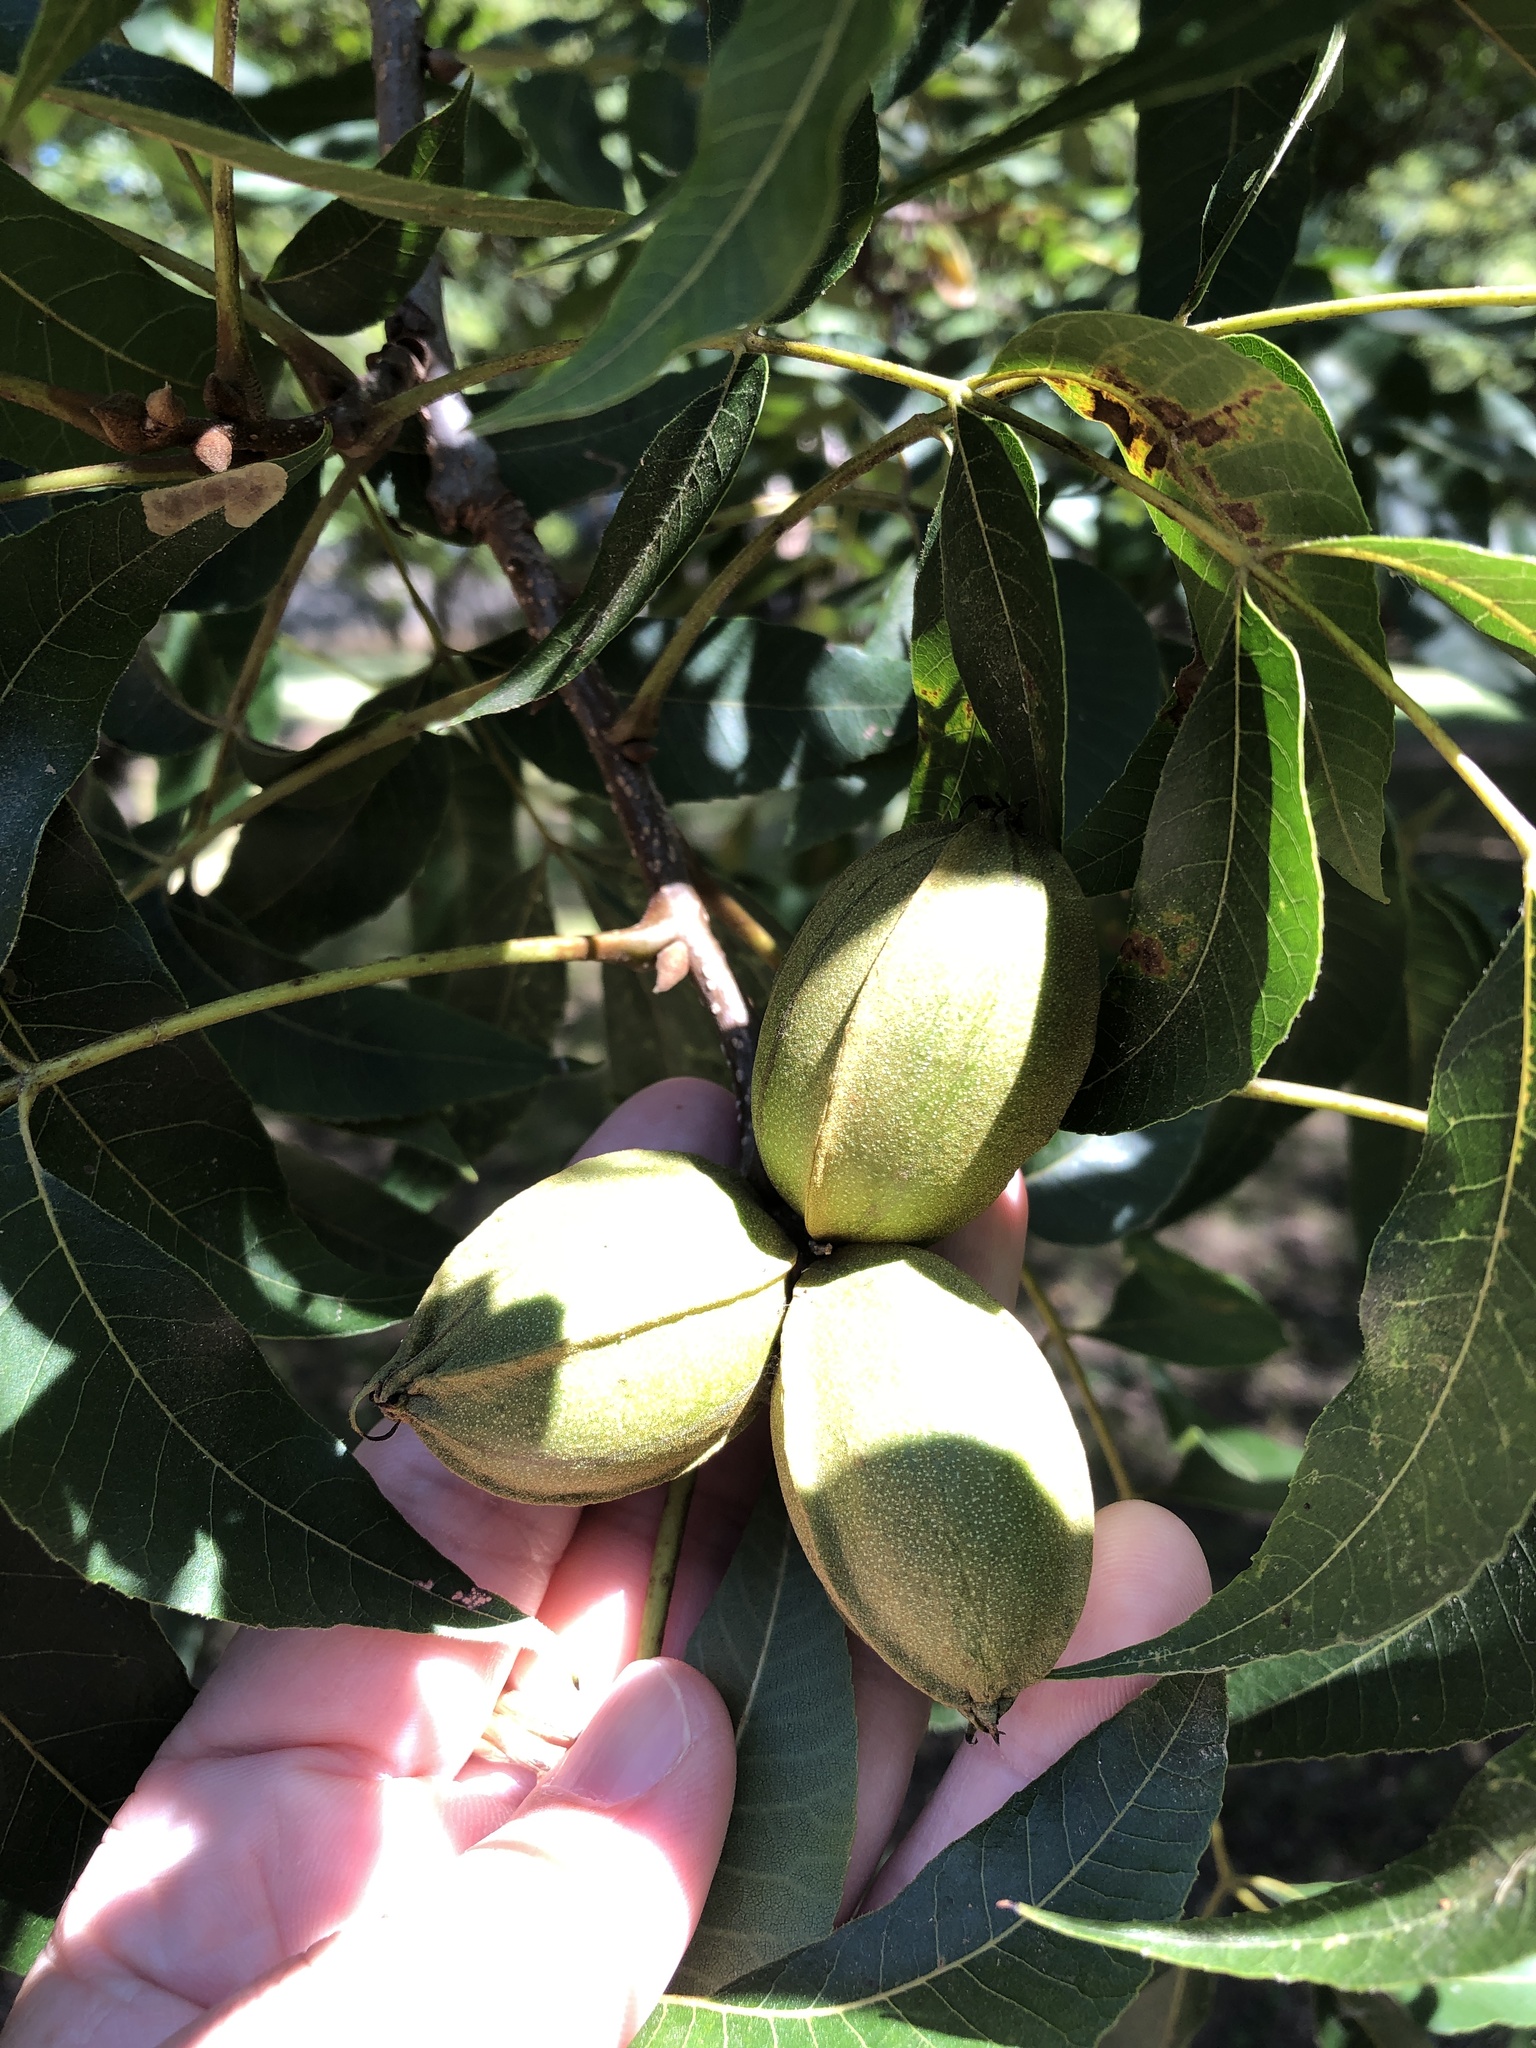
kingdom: Plantae
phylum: Tracheophyta
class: Magnoliopsida
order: Fagales
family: Juglandaceae
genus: Carya
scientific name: Carya illinoinensis
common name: Pecan
